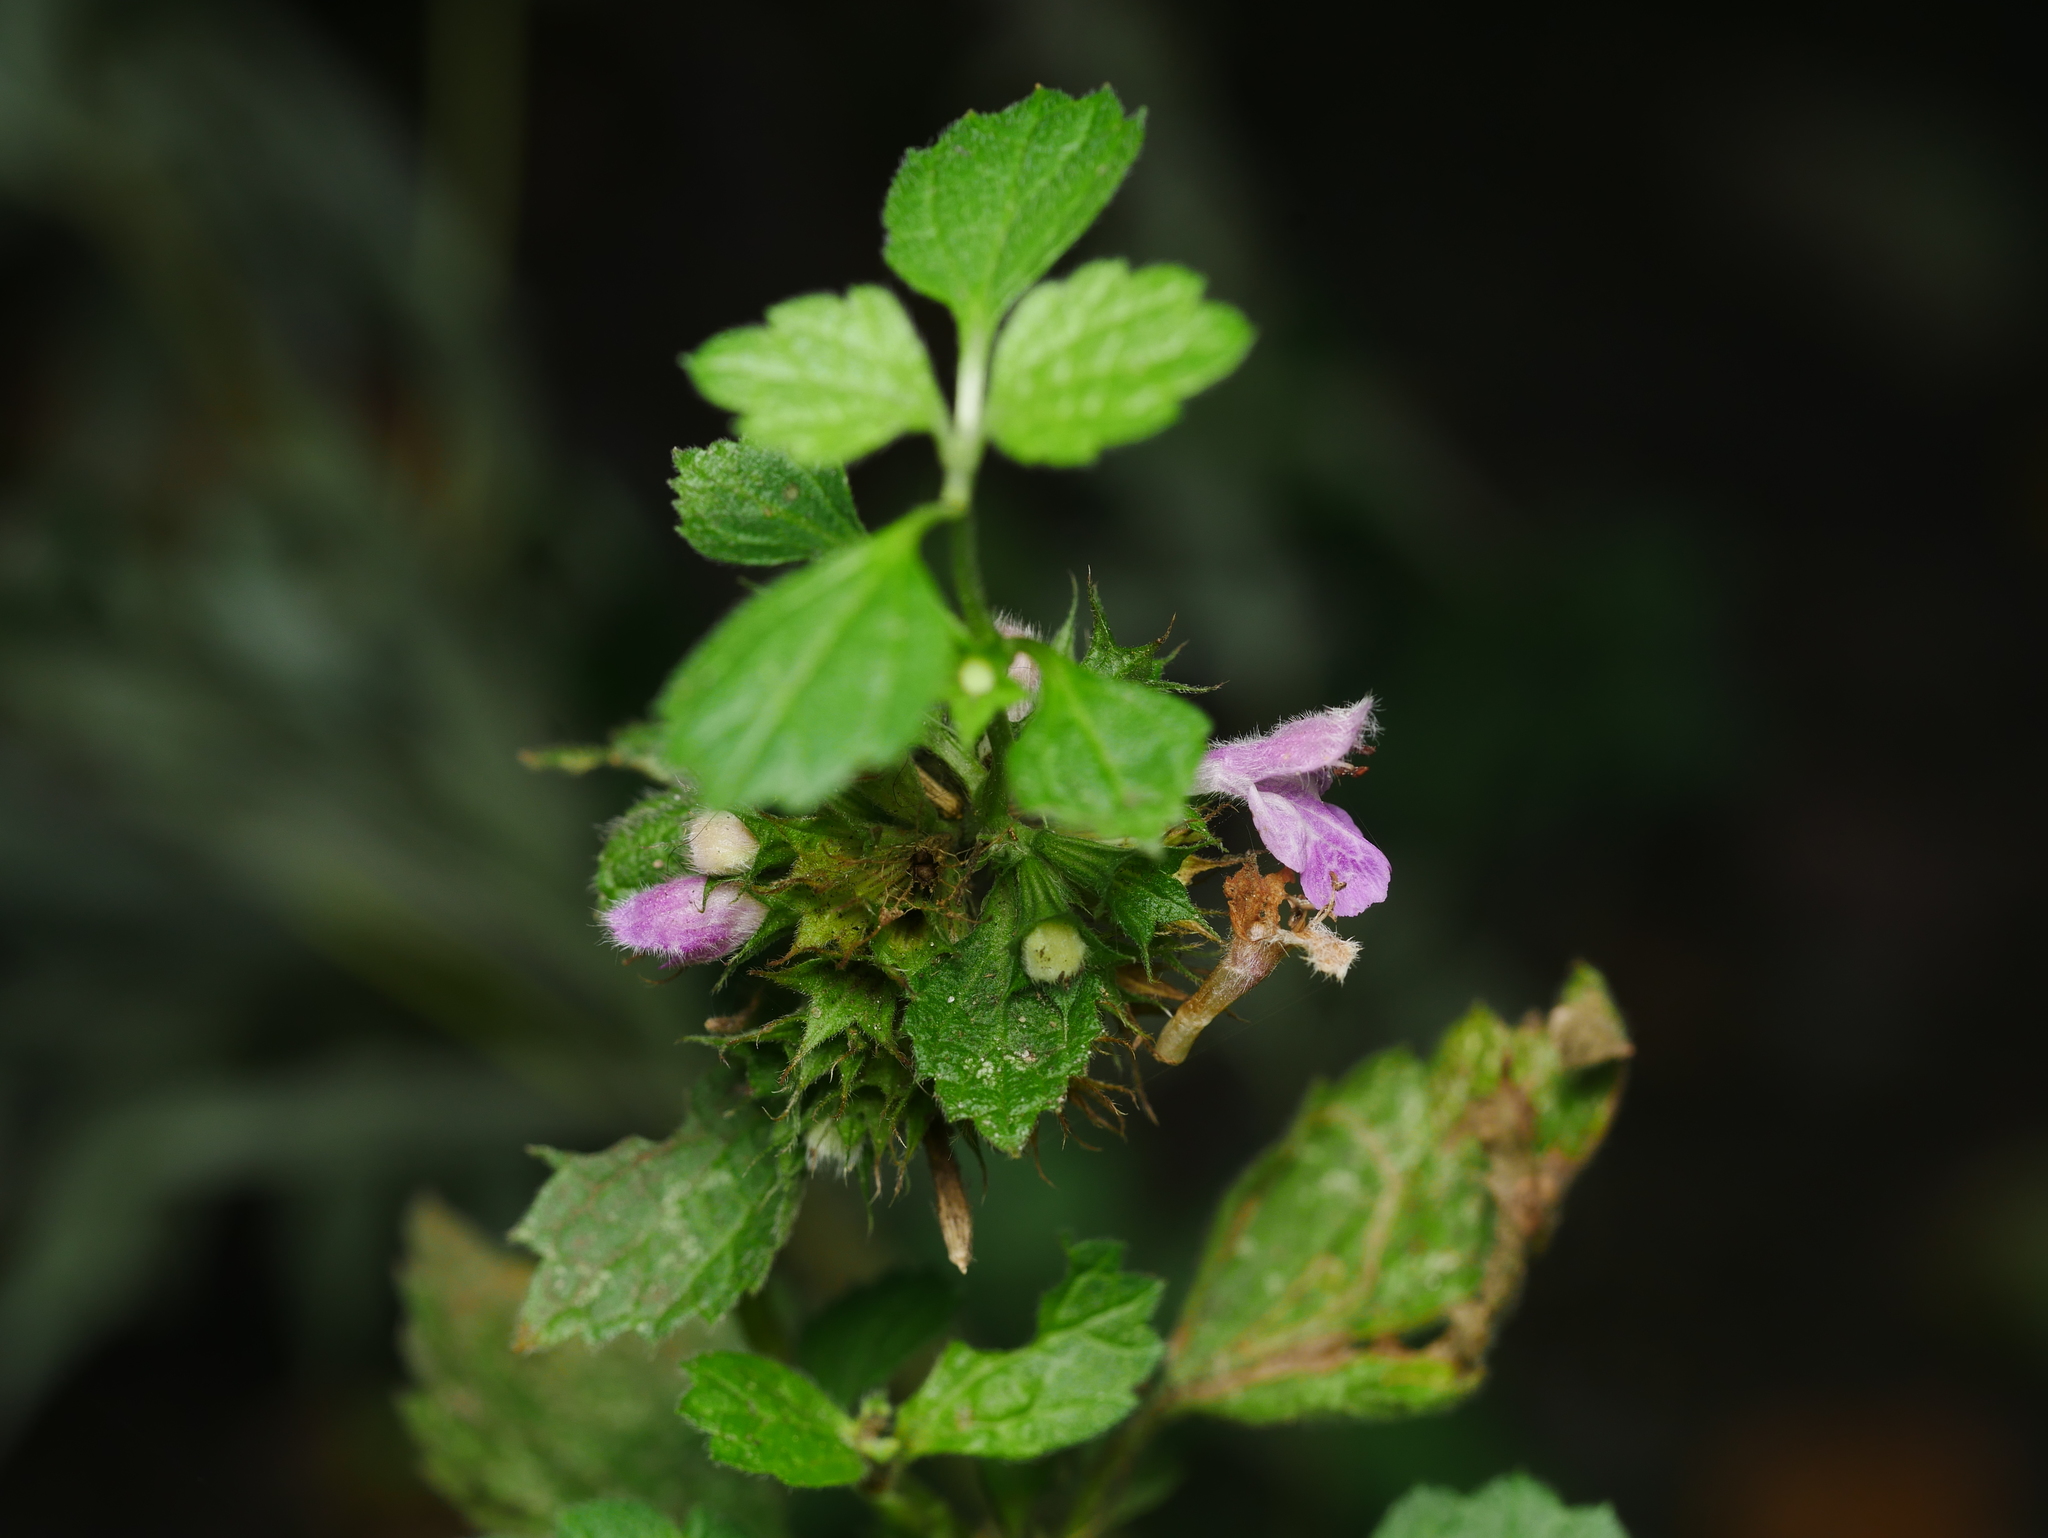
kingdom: Plantae
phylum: Tracheophyta
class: Magnoliopsida
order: Lamiales
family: Lamiaceae
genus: Ballota
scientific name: Ballota nigra
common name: Black horehound
